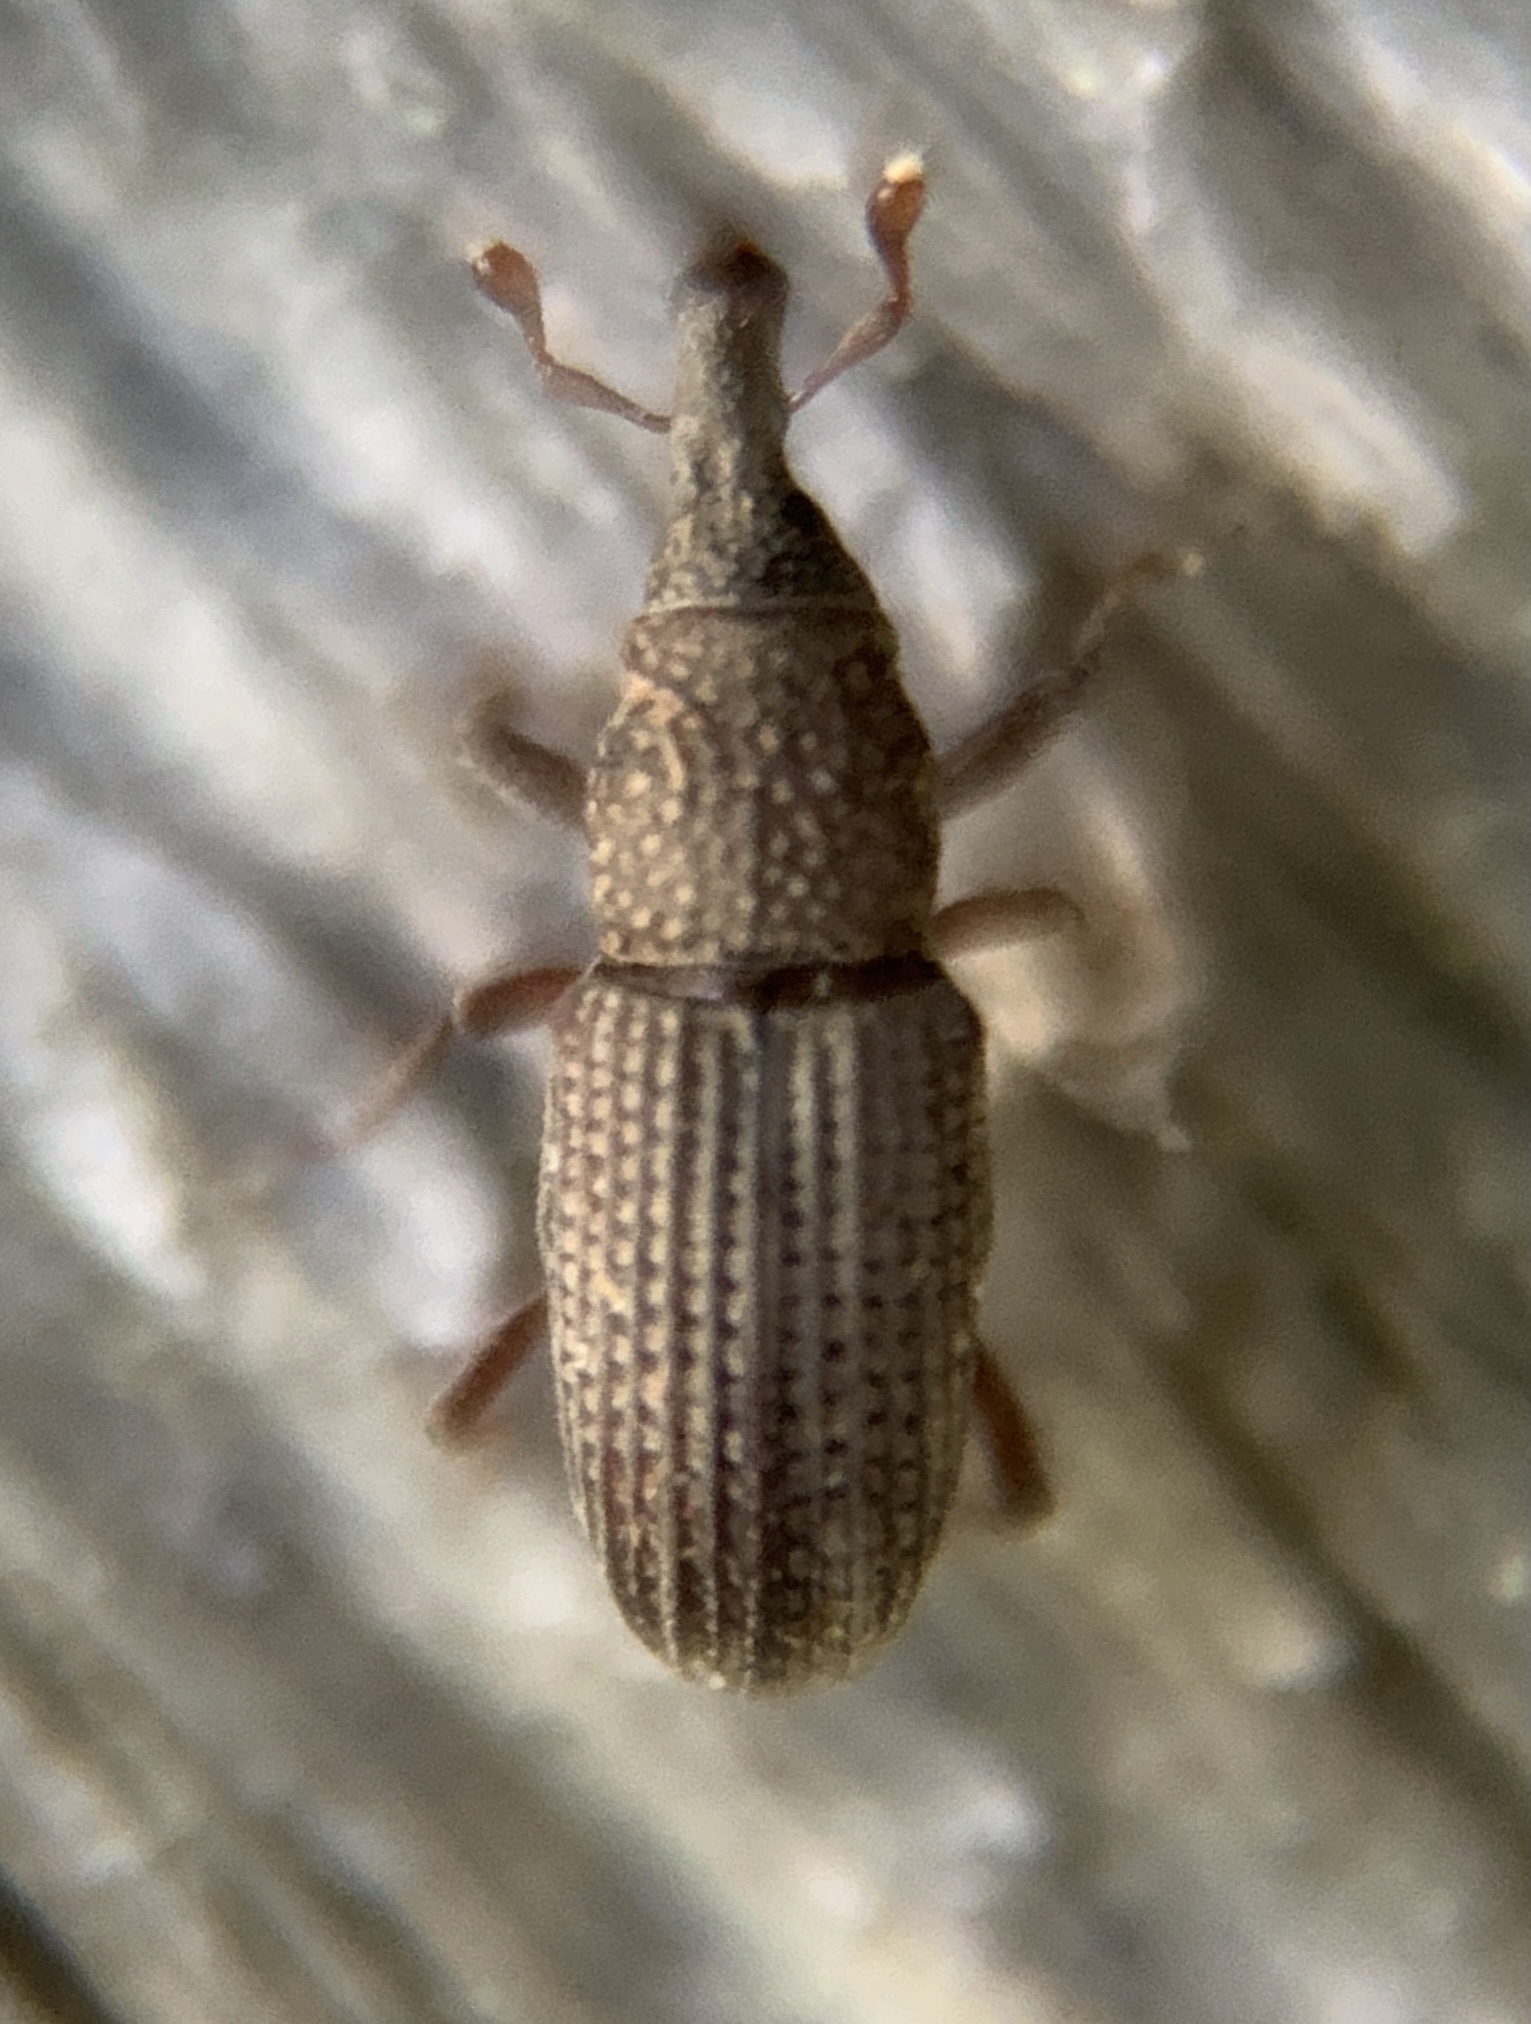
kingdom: Animalia
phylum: Arthropoda
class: Insecta
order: Coleoptera
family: Dryophthoridae
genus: Dryophthorus
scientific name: Dryophthorus americanus
